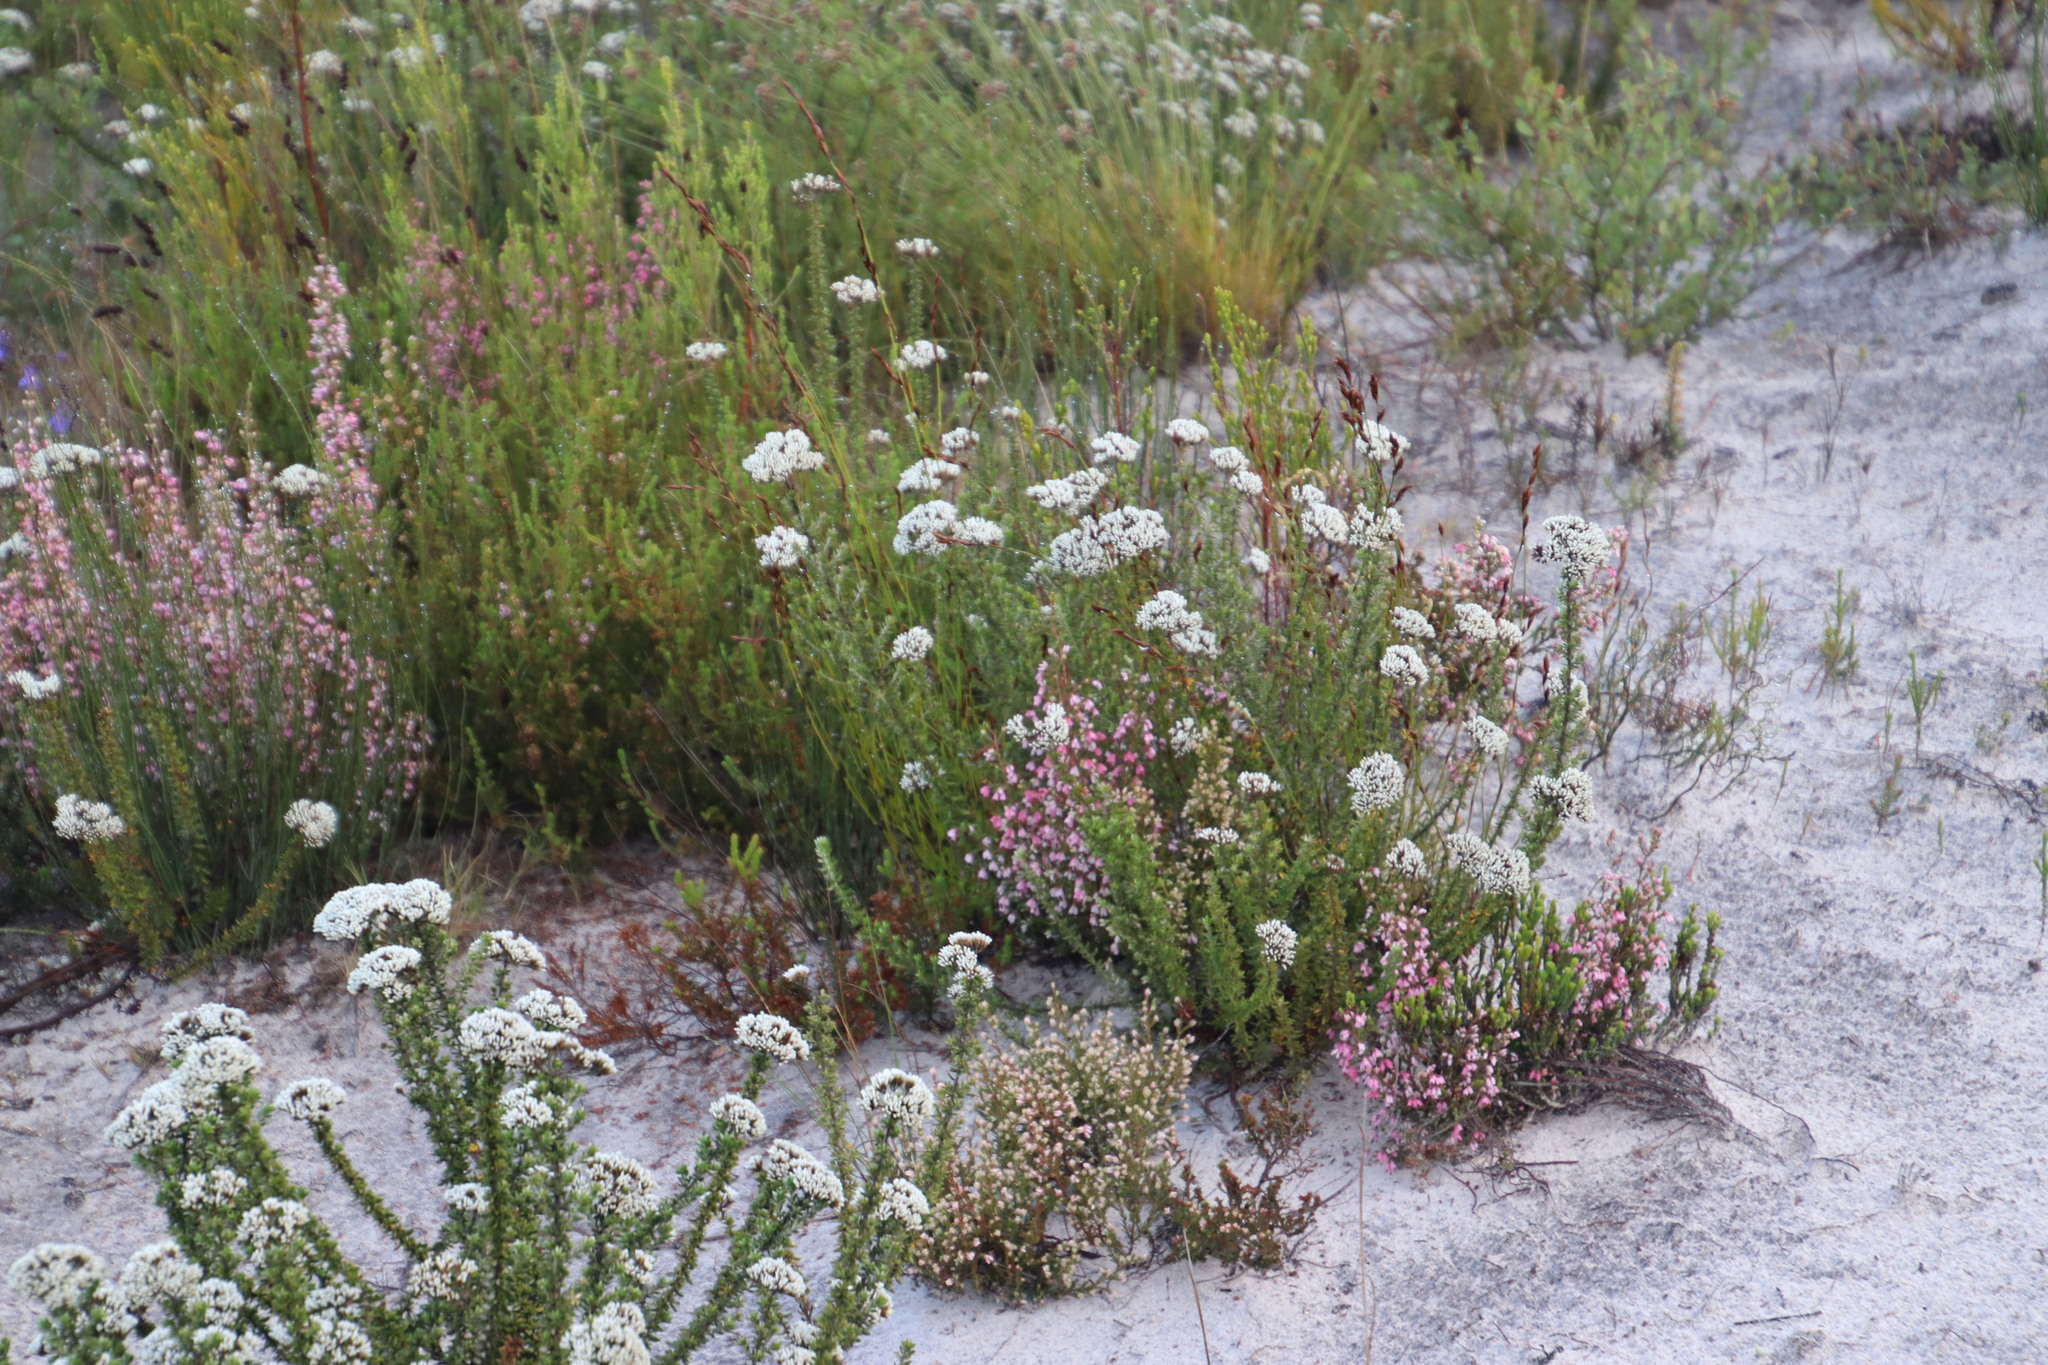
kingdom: Plantae
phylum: Tracheophyta
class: Magnoliopsida
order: Ericales
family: Ericaceae
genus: Erica
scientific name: Erica placentiflora
